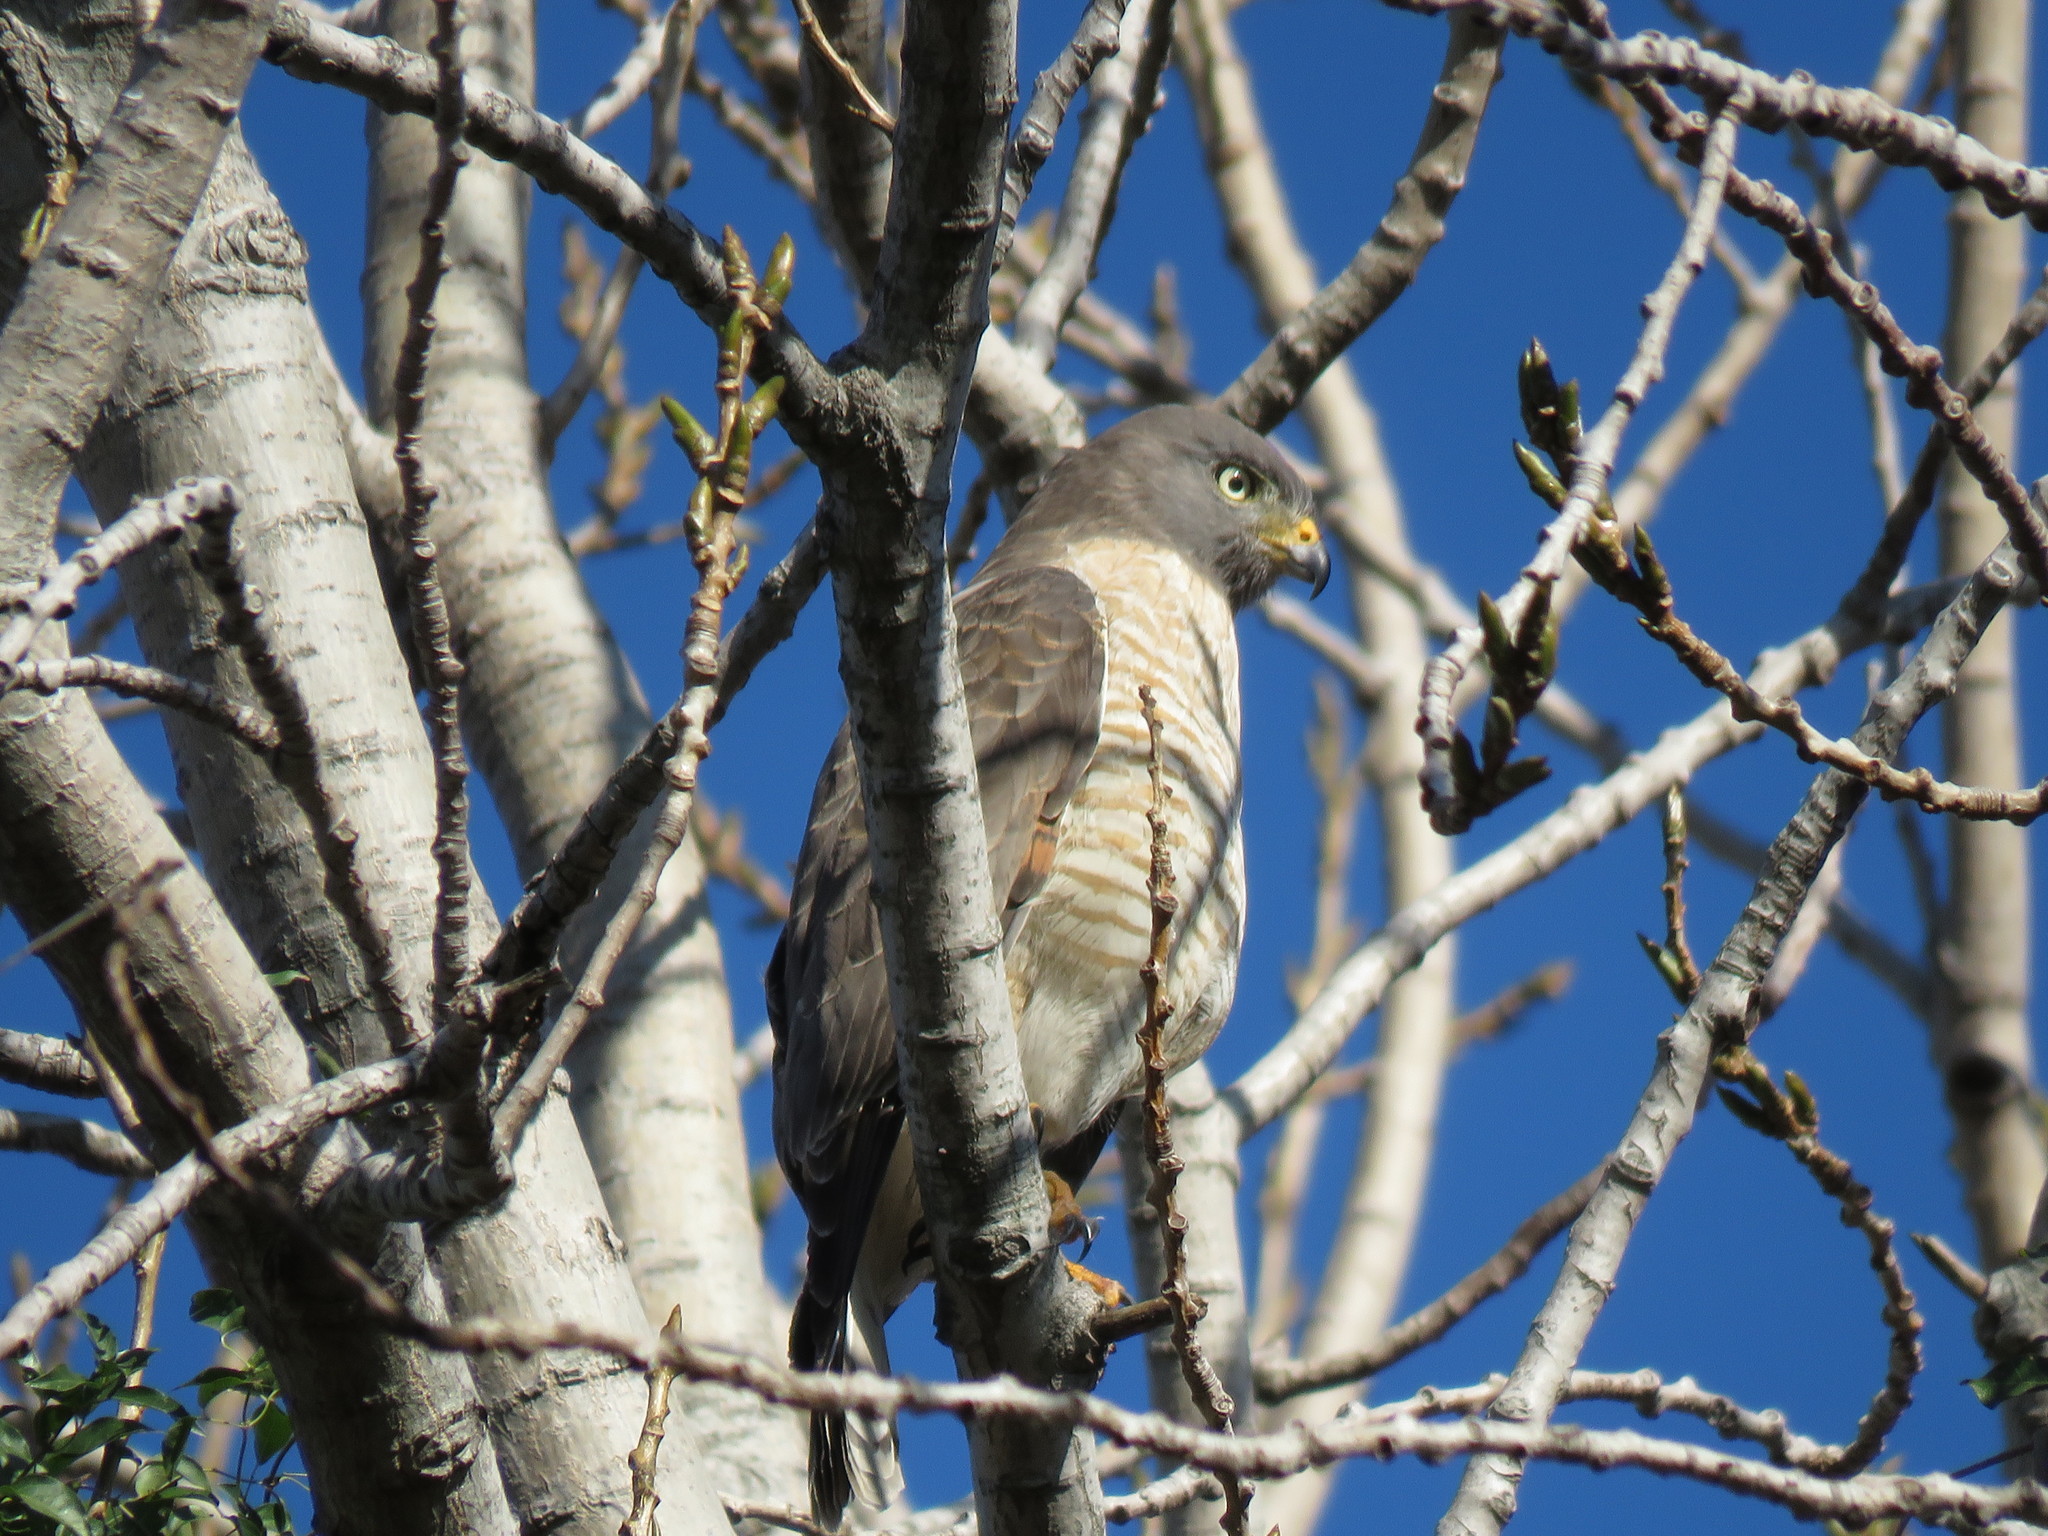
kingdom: Animalia
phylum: Chordata
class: Aves
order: Accipitriformes
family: Accipitridae
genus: Rupornis
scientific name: Rupornis magnirostris
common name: Roadside hawk
